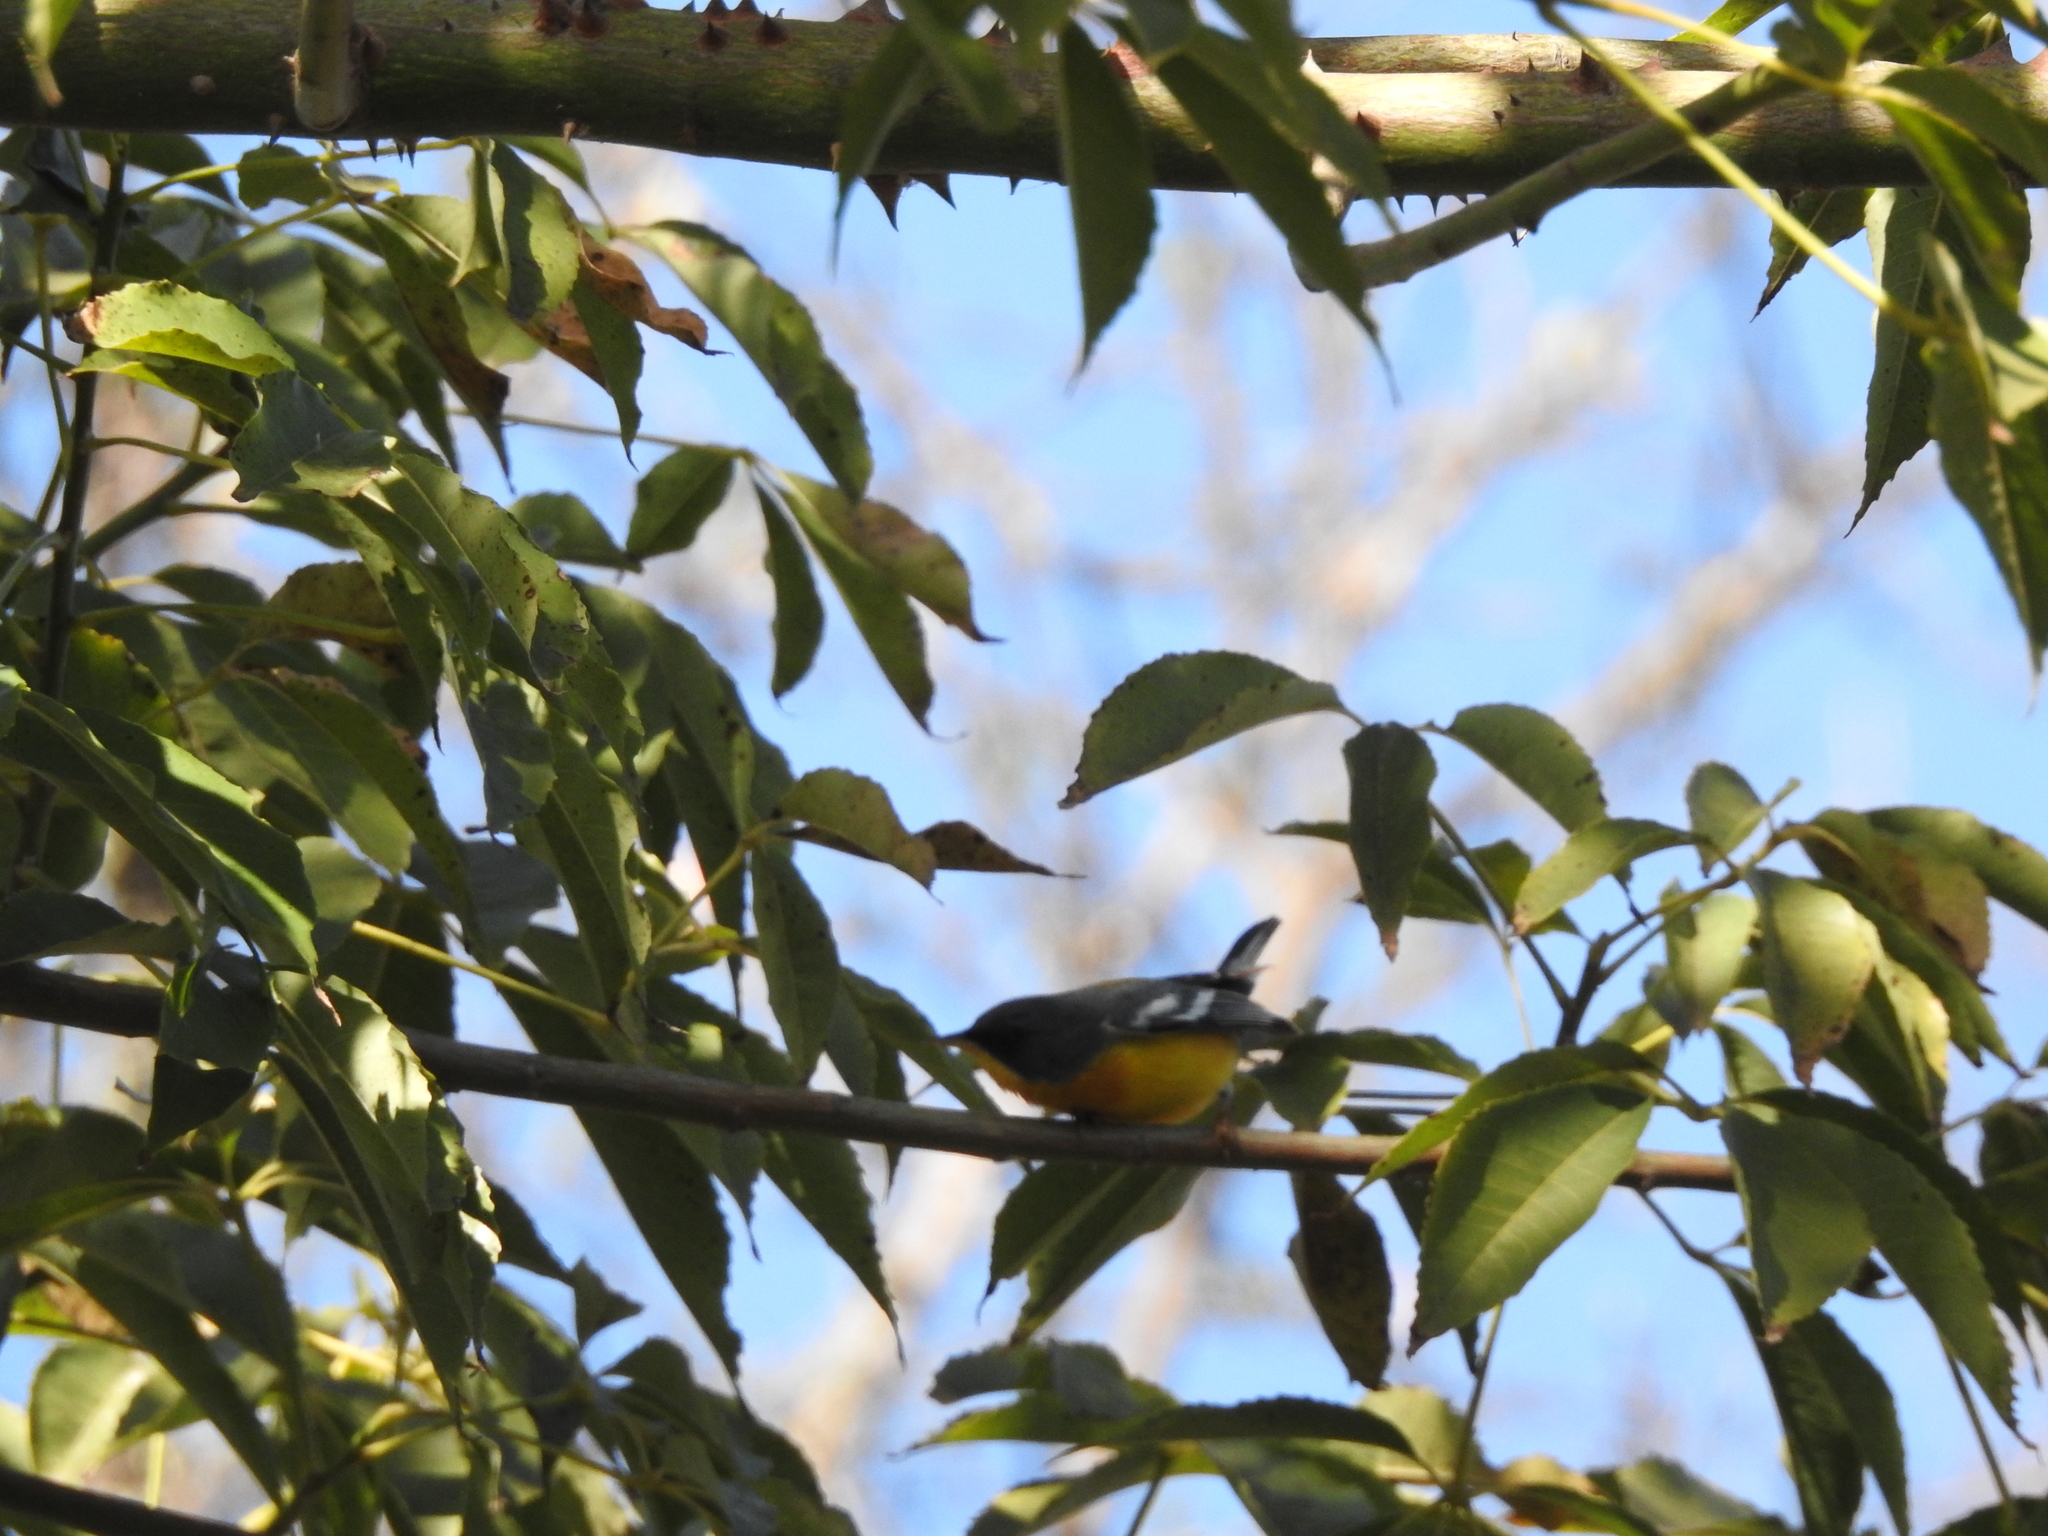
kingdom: Animalia
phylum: Chordata
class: Aves
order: Passeriformes
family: Parulidae
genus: Setophaga
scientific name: Setophaga pitiayumi
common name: Tropical parula
